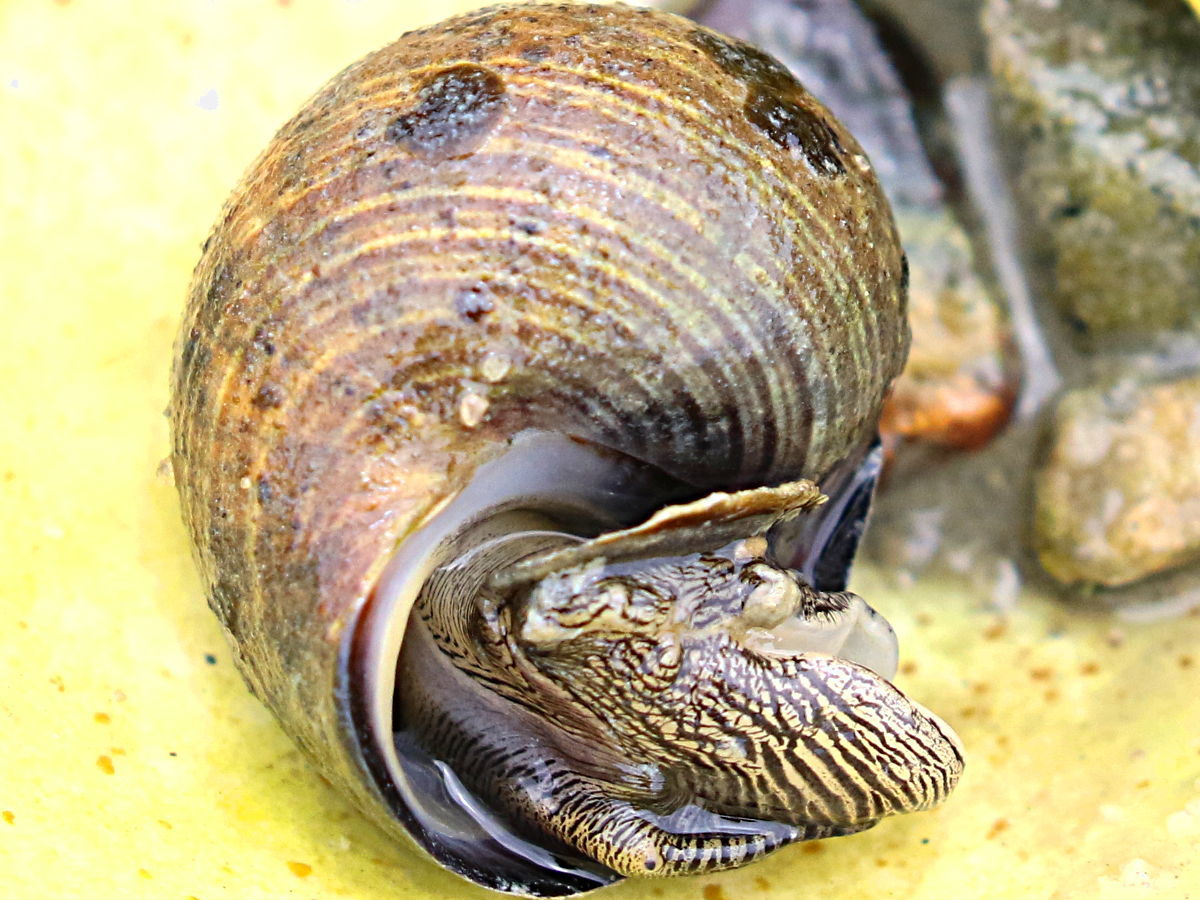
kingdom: Animalia
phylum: Mollusca
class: Gastropoda
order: Littorinimorpha
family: Littorinidae
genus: Littorina
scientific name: Littorina littorea
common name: Common periwinkle
